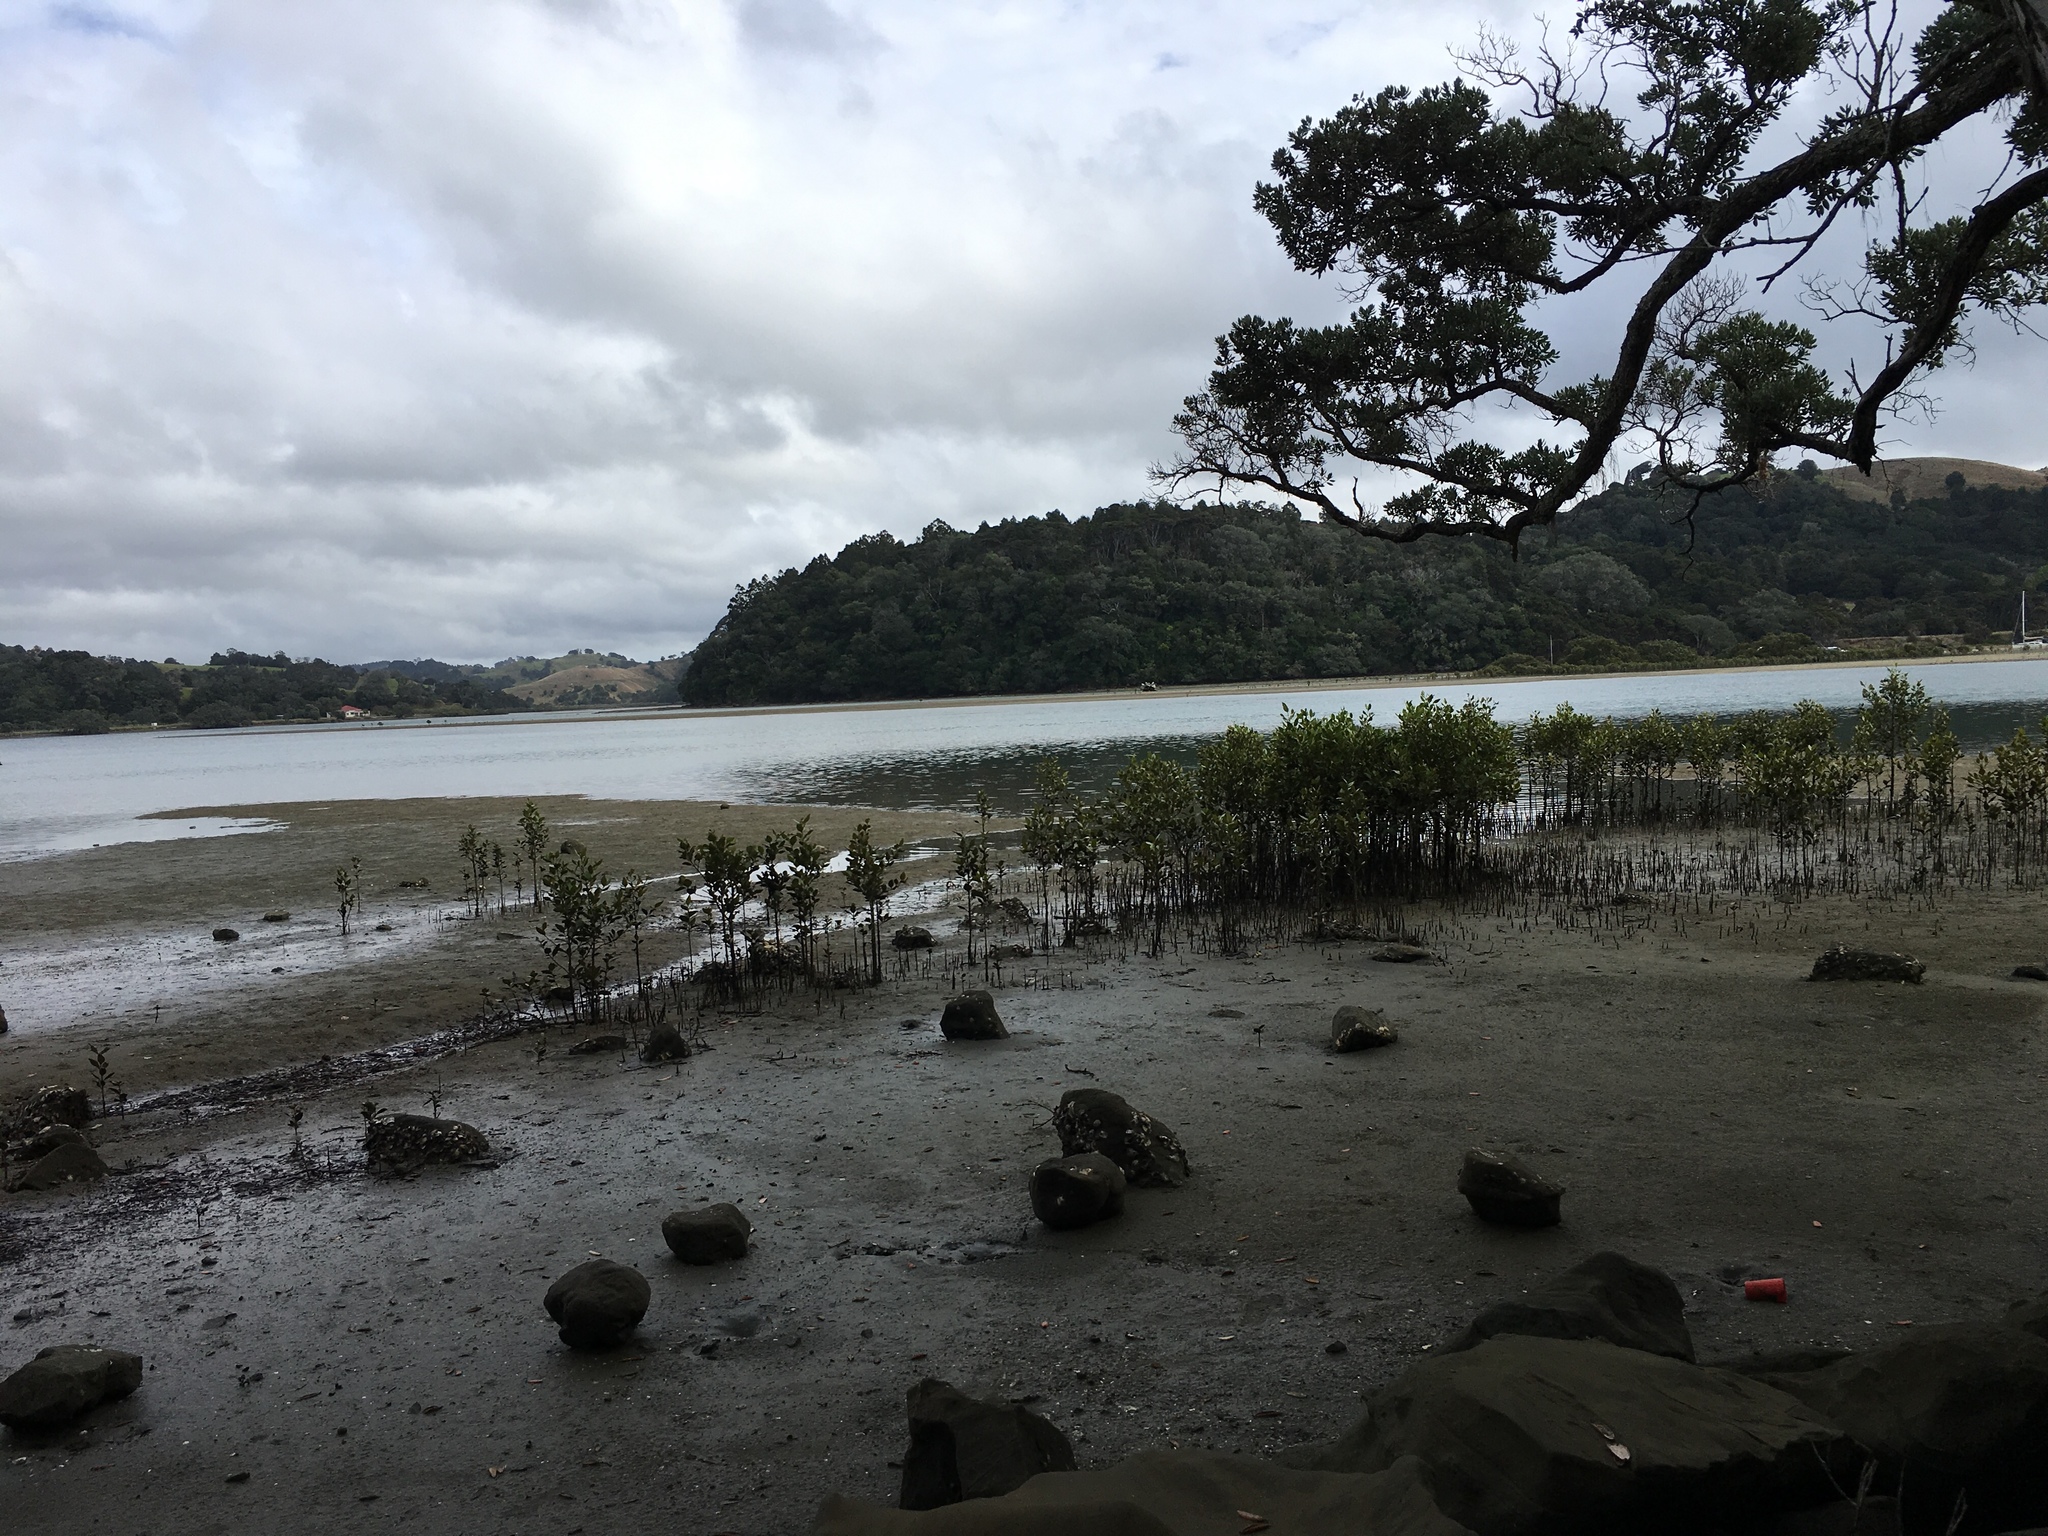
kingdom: Plantae
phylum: Tracheophyta
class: Magnoliopsida
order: Lamiales
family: Acanthaceae
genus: Avicennia
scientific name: Avicennia marina
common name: Gray mangrove
